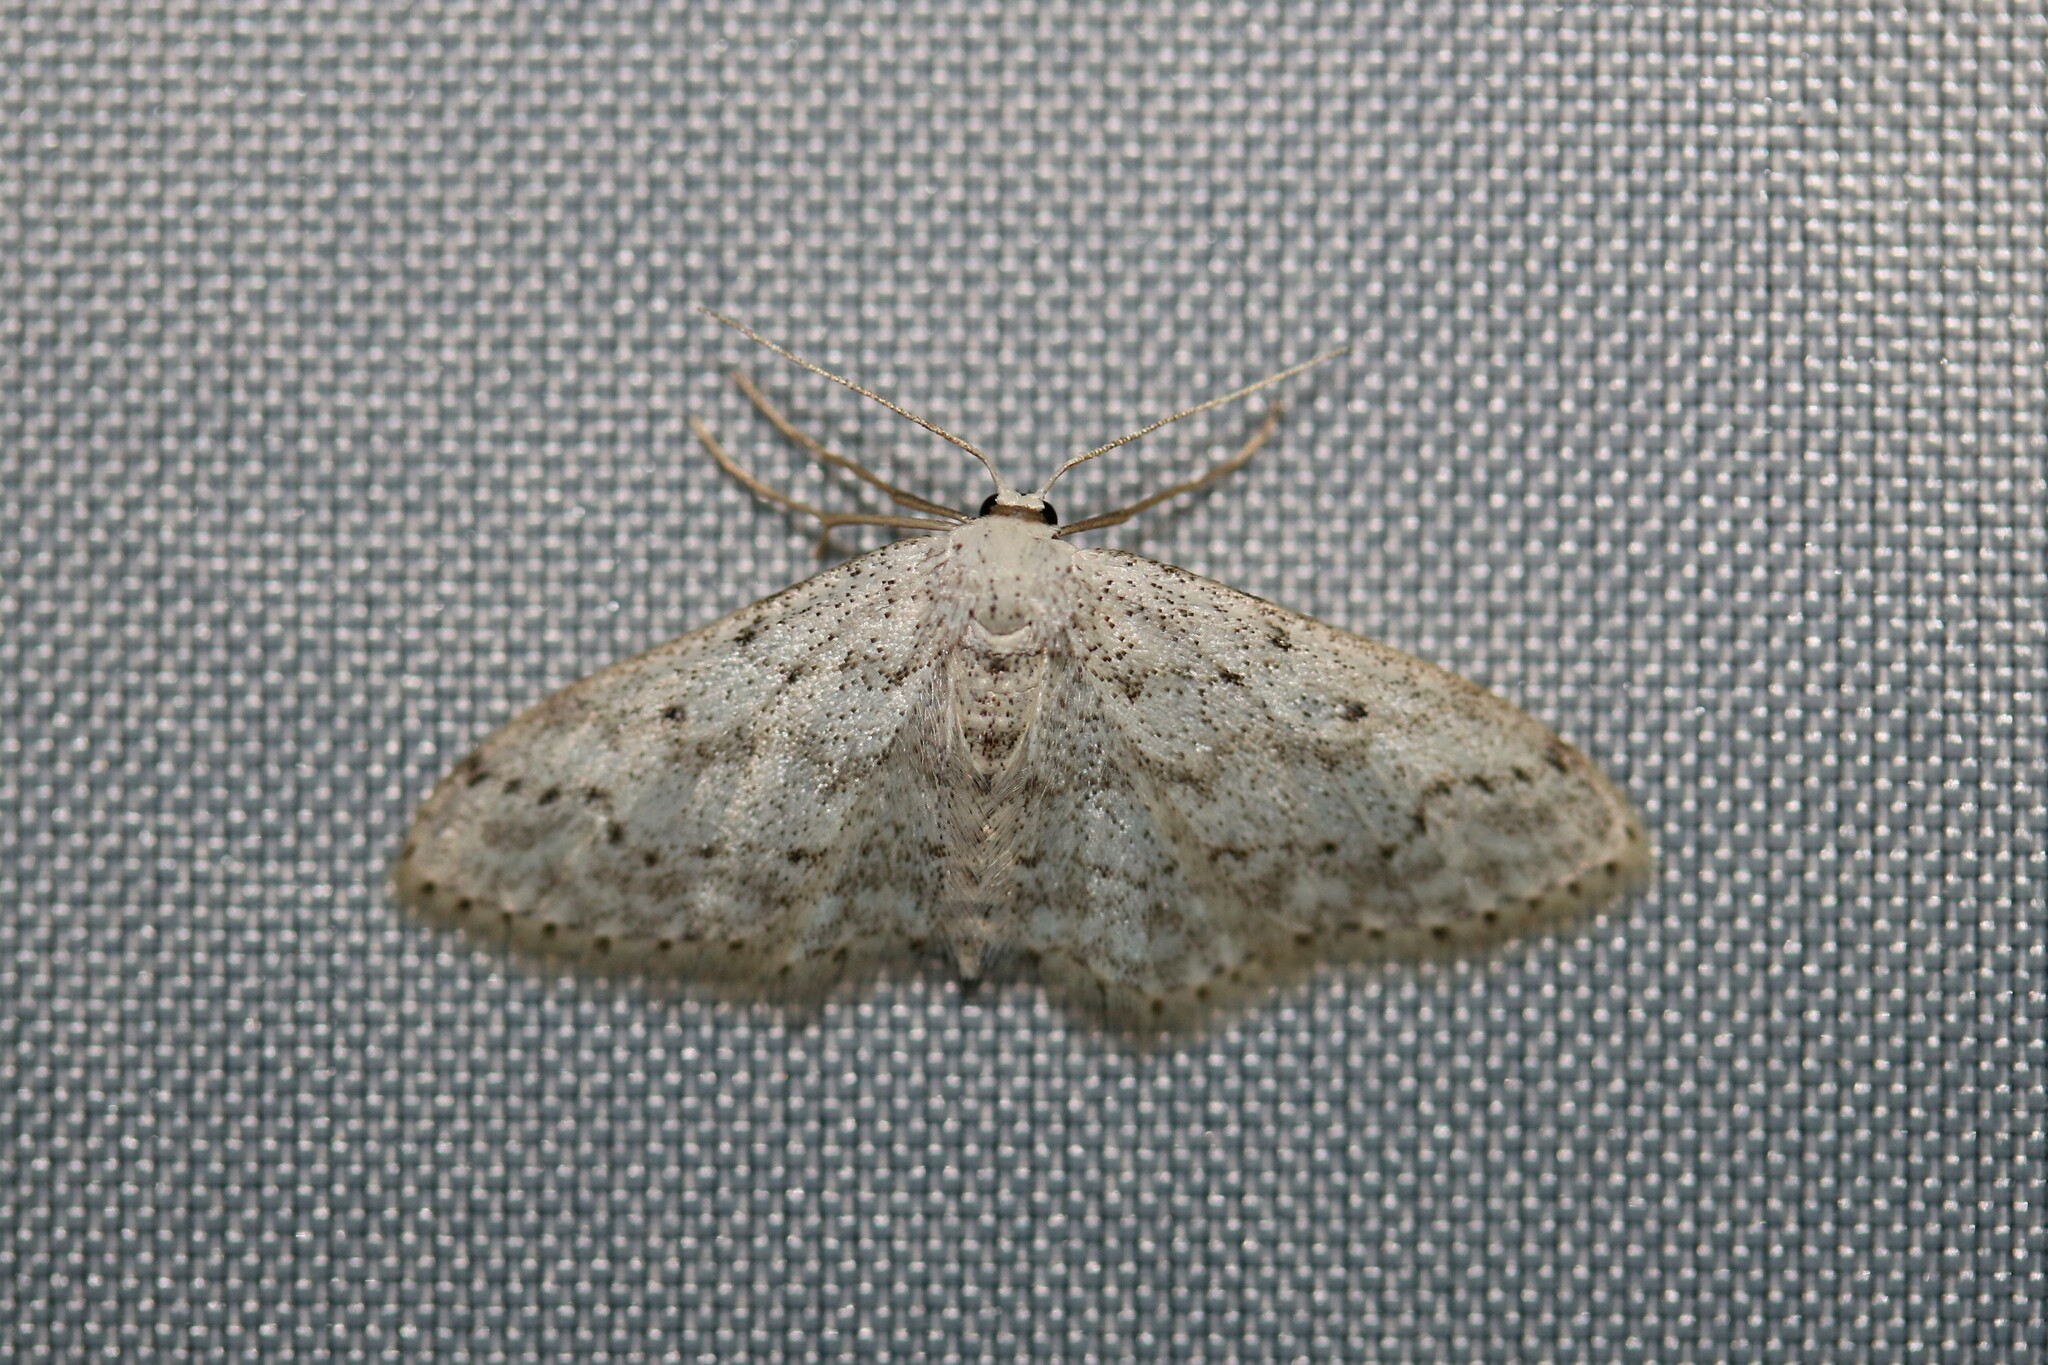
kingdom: Animalia
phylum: Arthropoda
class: Insecta
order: Lepidoptera
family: Geometridae
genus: Idaea
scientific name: Idaea seriata
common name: Small dusty wave
